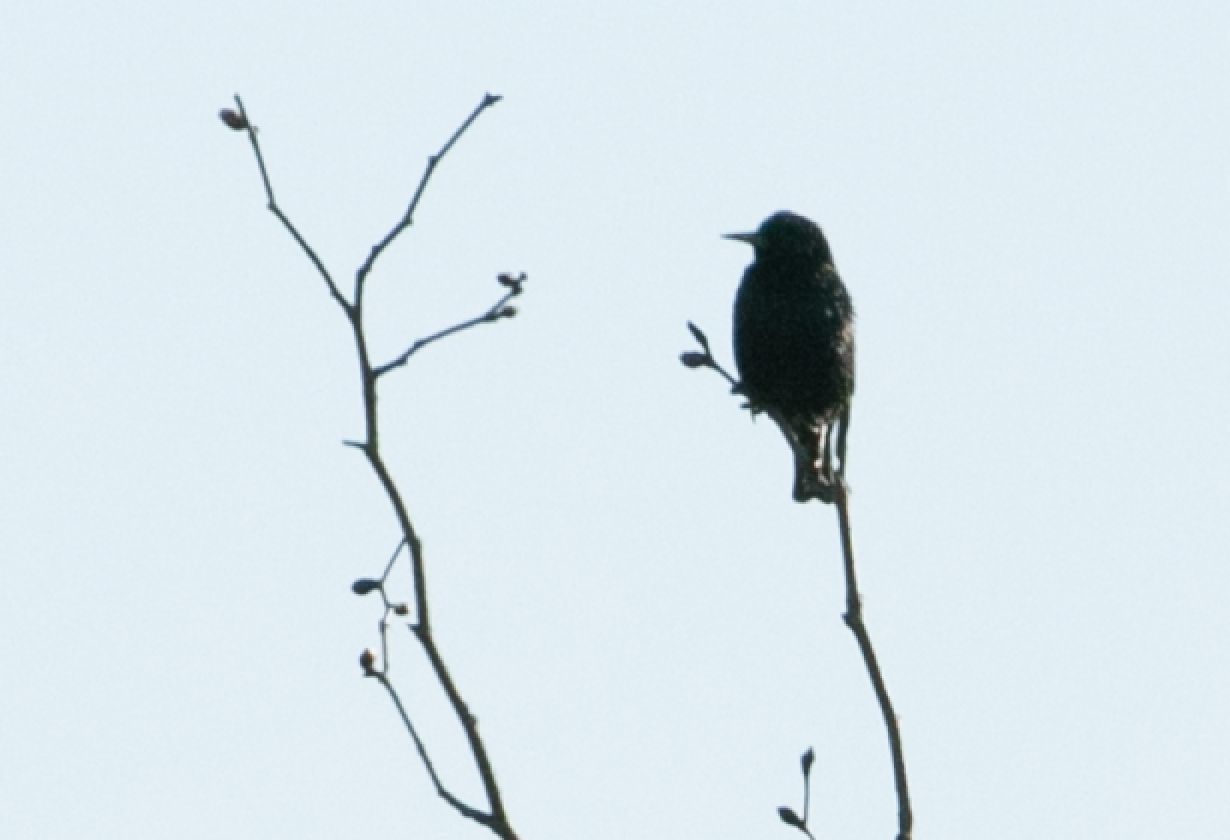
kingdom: Animalia
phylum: Chordata
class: Aves
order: Passeriformes
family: Sturnidae
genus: Sturnus
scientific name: Sturnus vulgaris
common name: Common starling
